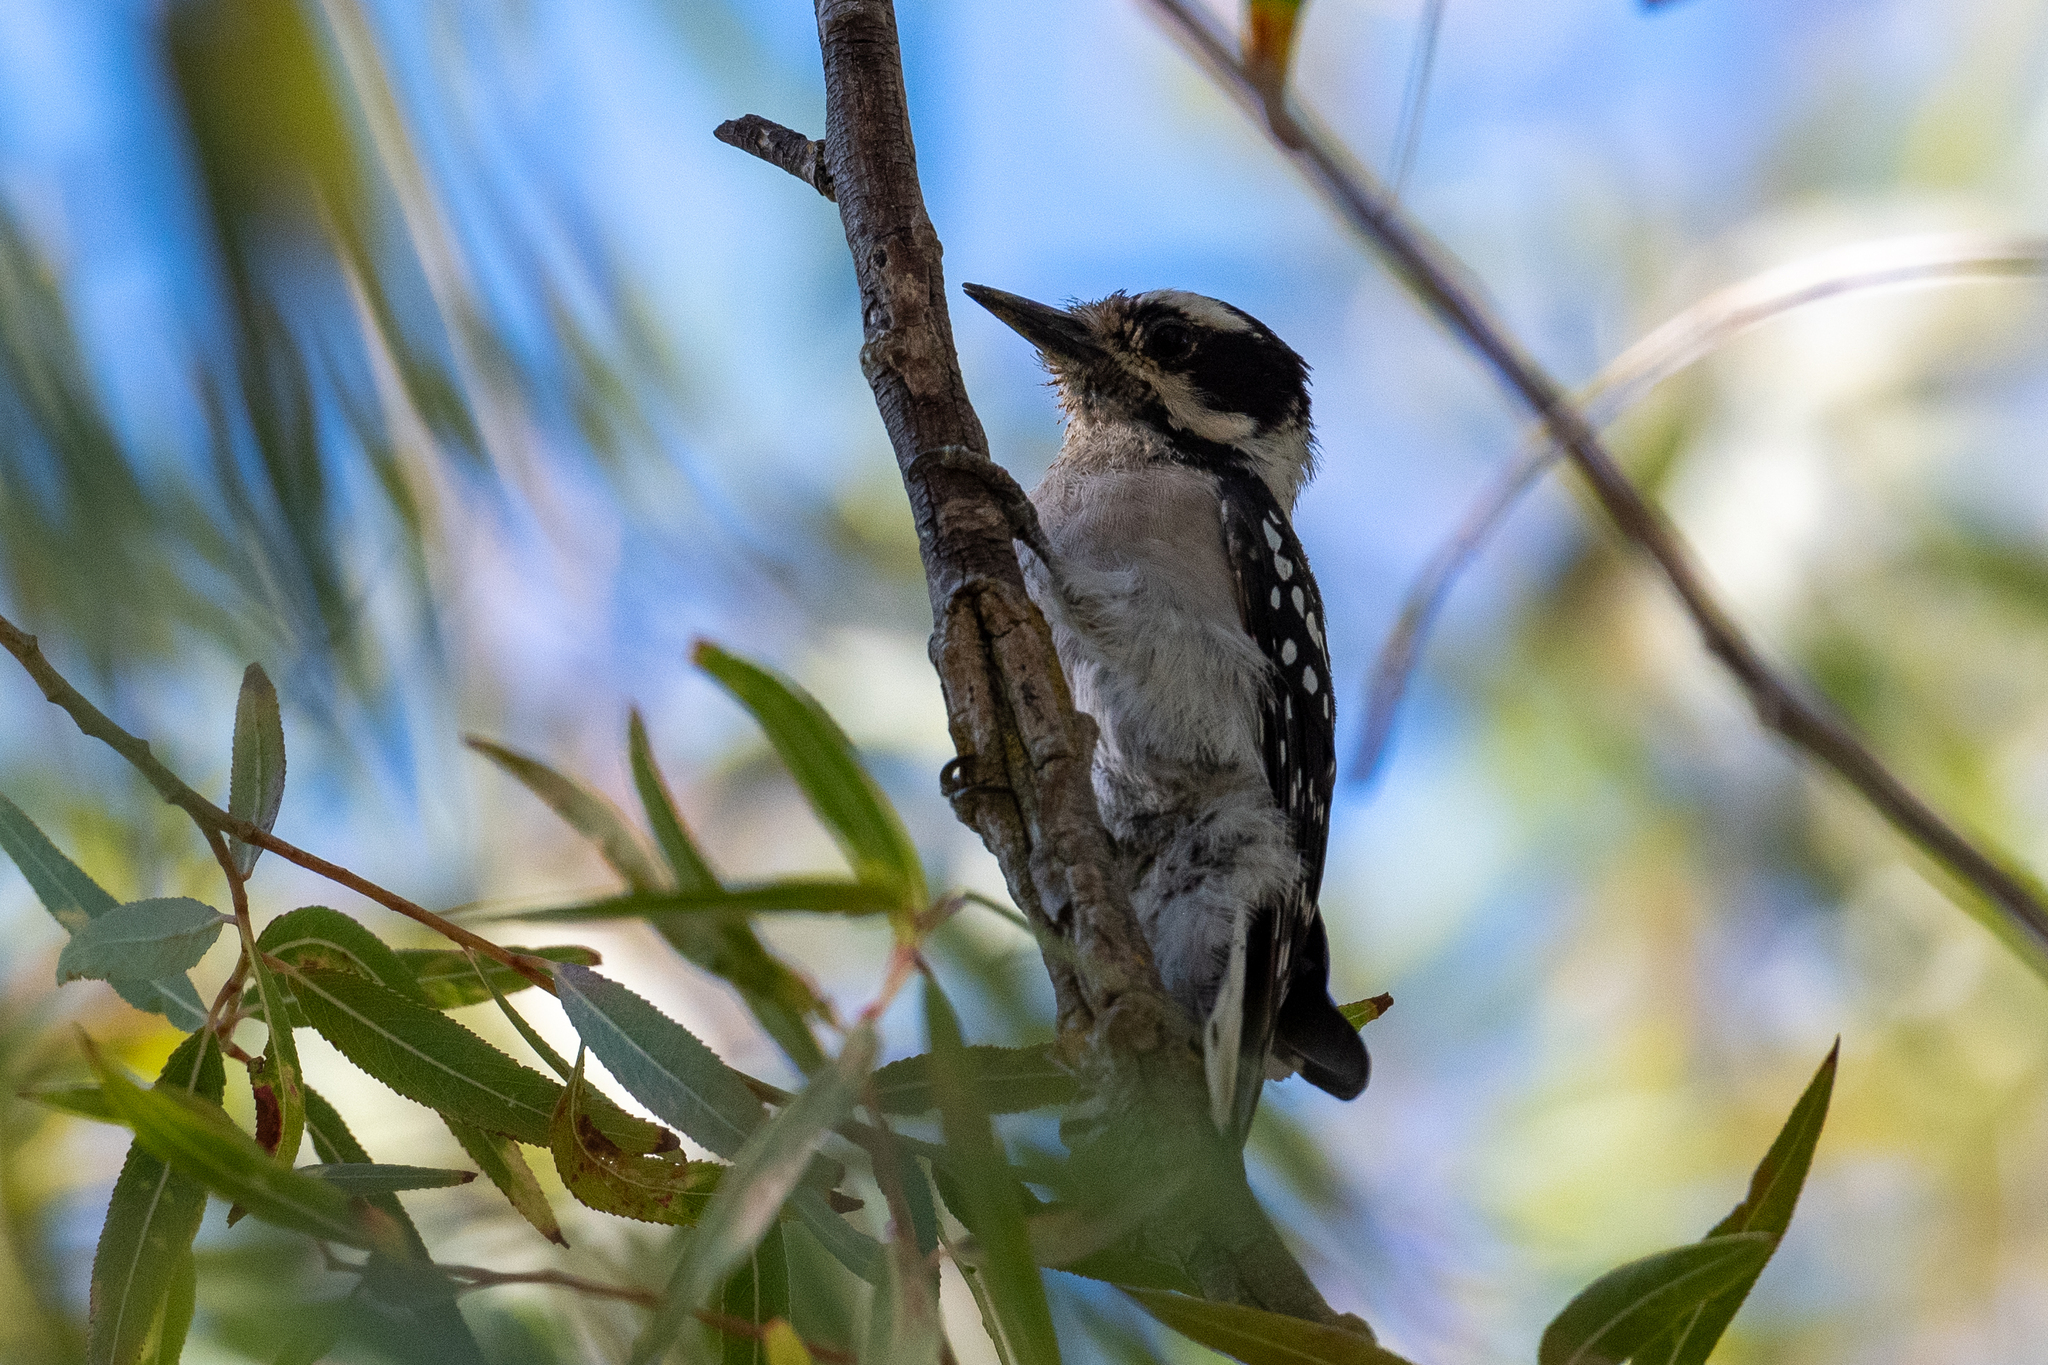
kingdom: Animalia
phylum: Chordata
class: Aves
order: Piciformes
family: Picidae
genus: Dryobates
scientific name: Dryobates pubescens
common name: Downy woodpecker
